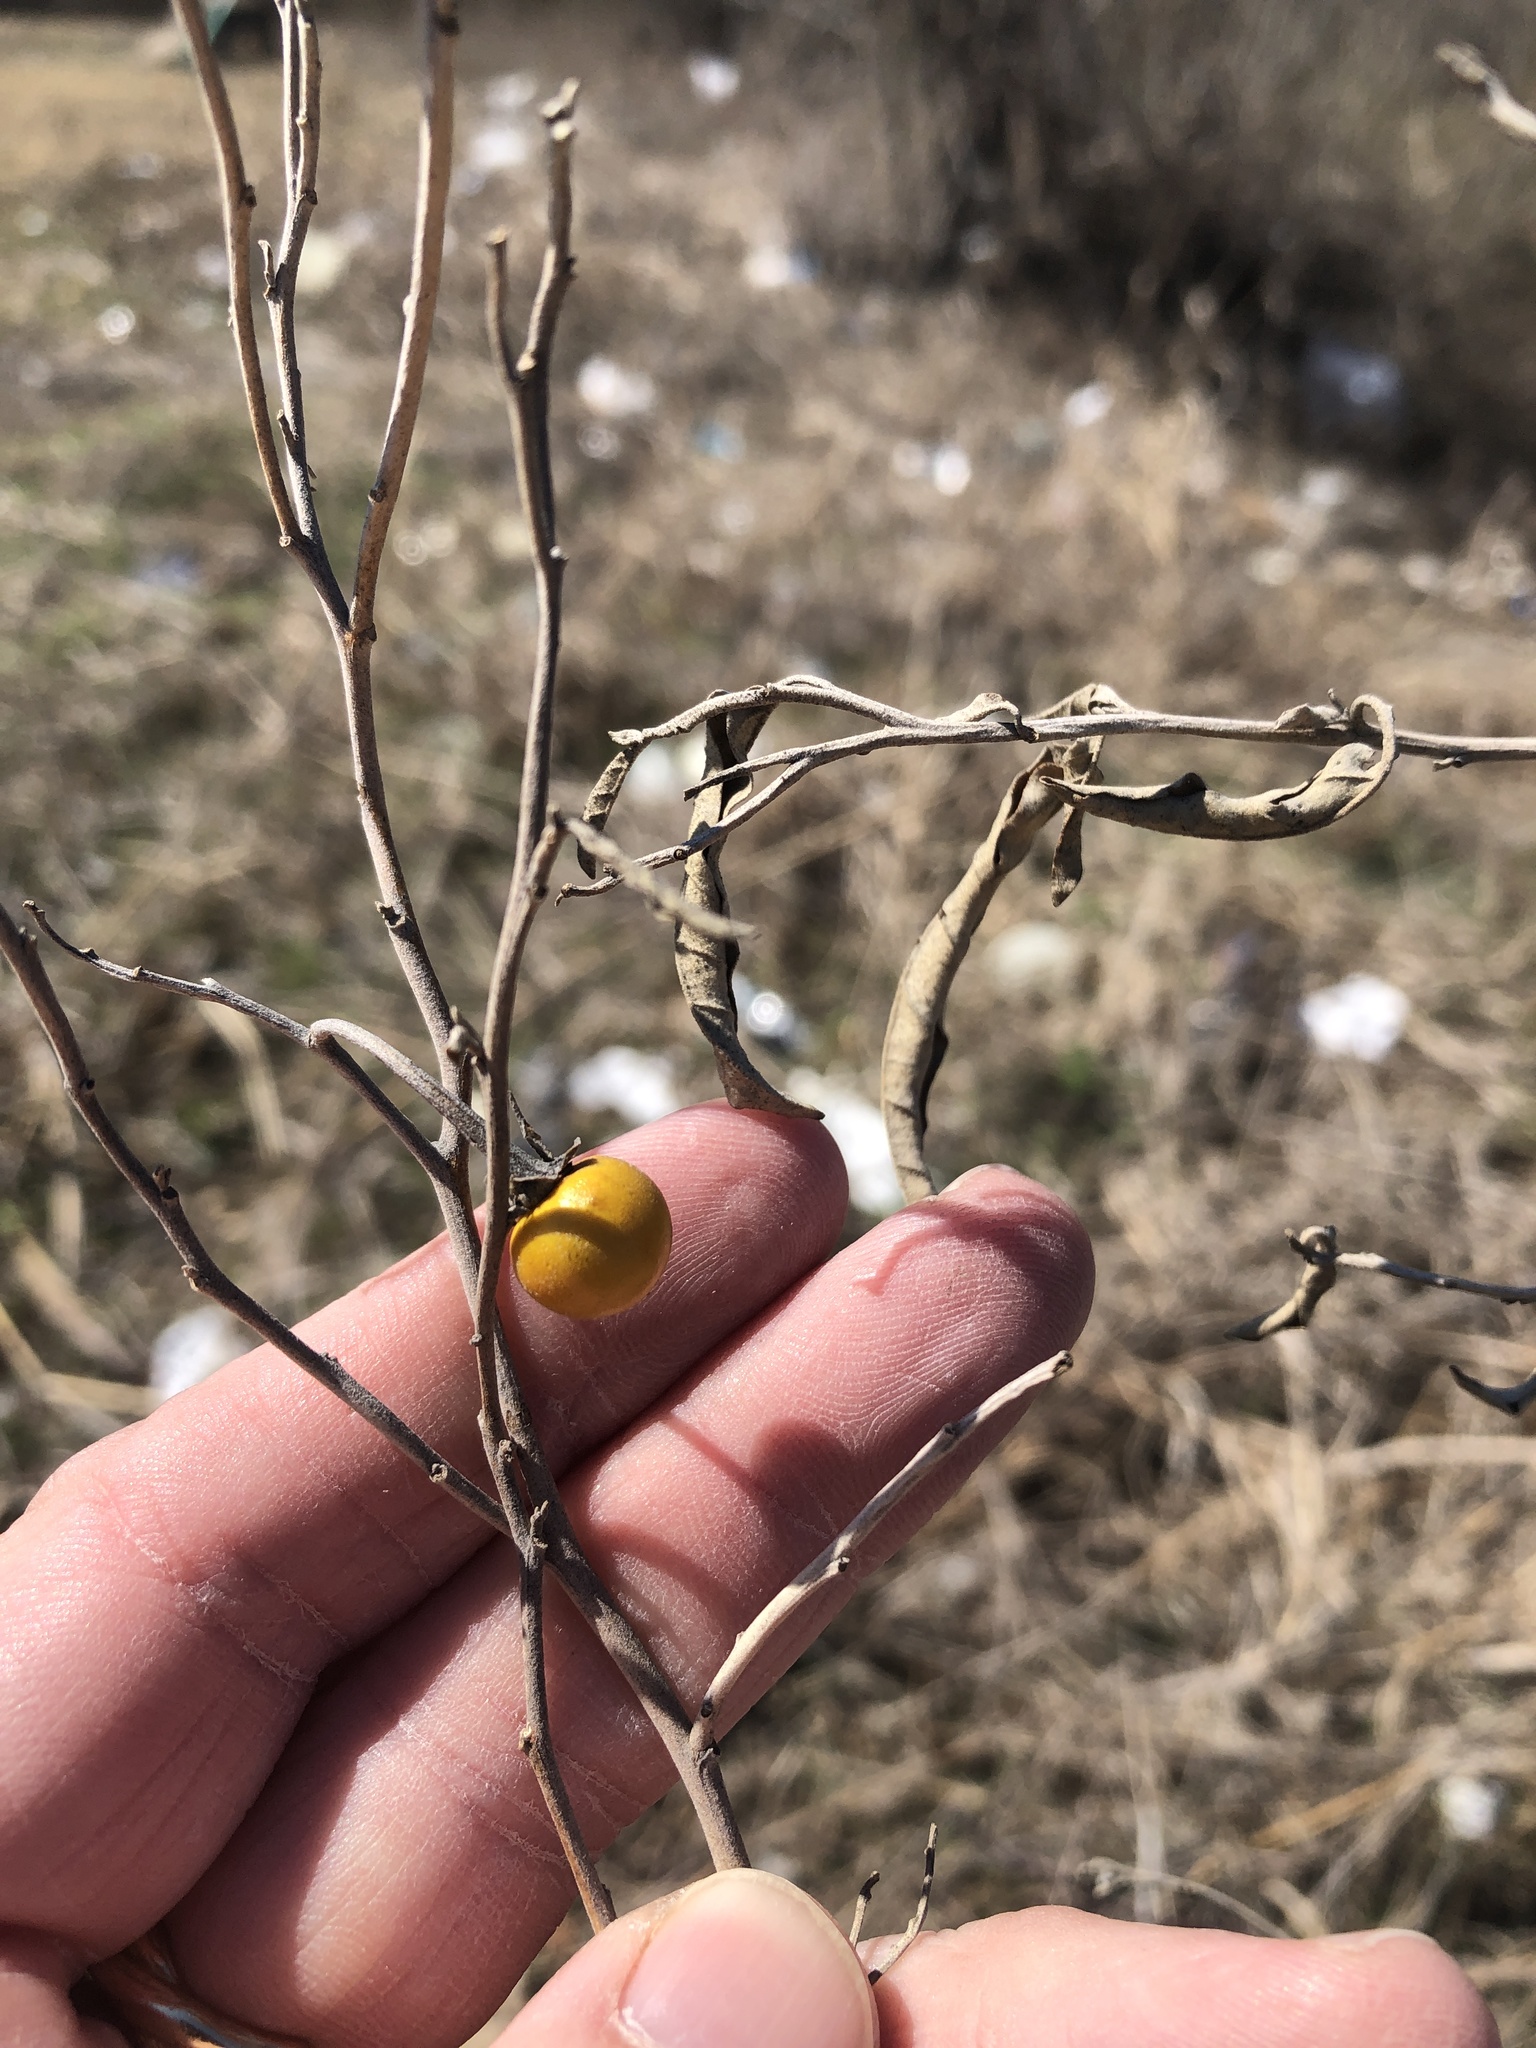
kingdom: Plantae
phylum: Tracheophyta
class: Magnoliopsida
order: Solanales
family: Solanaceae
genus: Solanum
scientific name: Solanum elaeagnifolium
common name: Silverleaf nightshade
